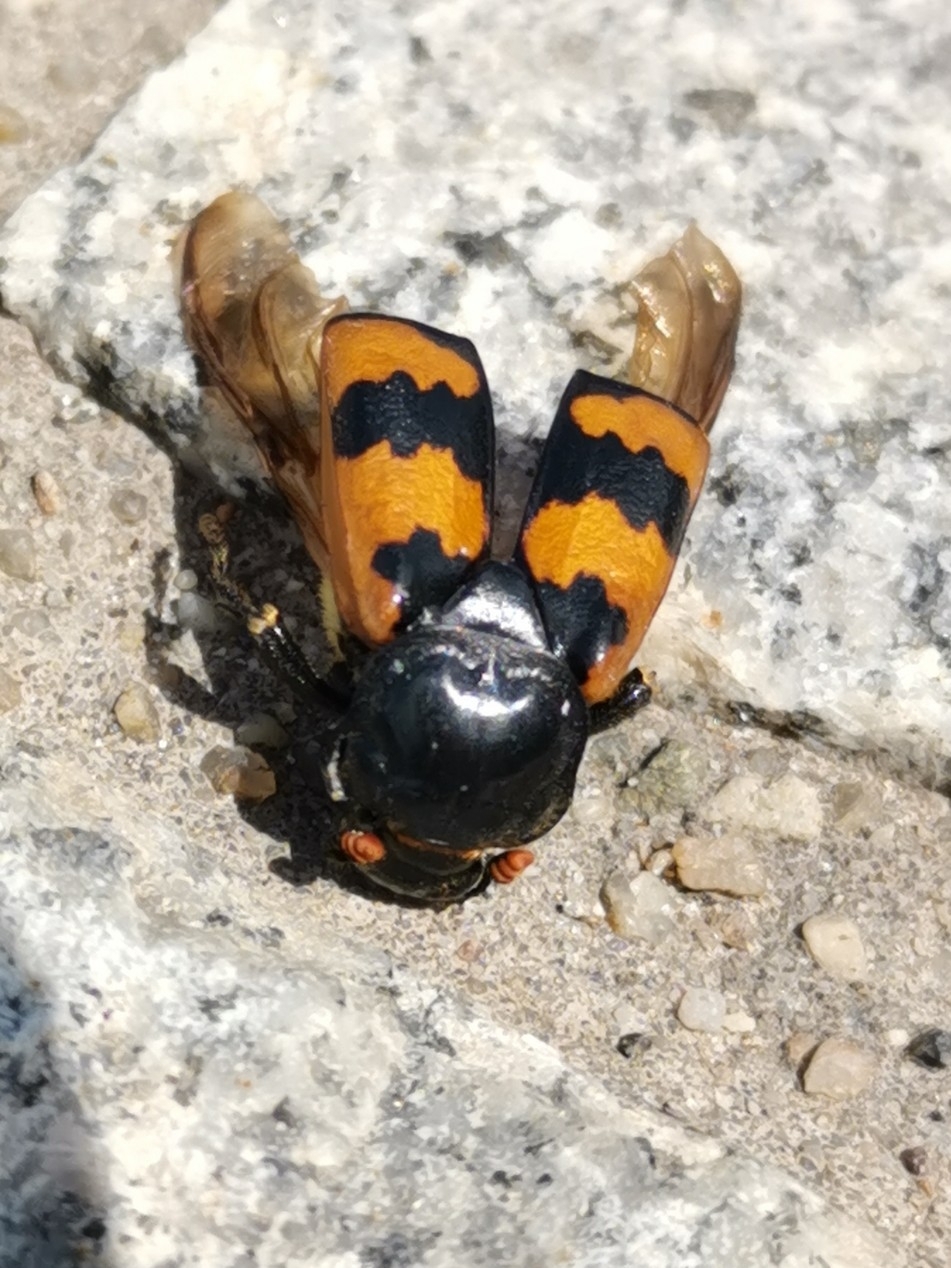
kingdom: Animalia
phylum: Arthropoda
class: Insecta
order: Coleoptera
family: Staphylinidae
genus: Nicrophorus
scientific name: Nicrophorus vespillo
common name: Common burying beetle
